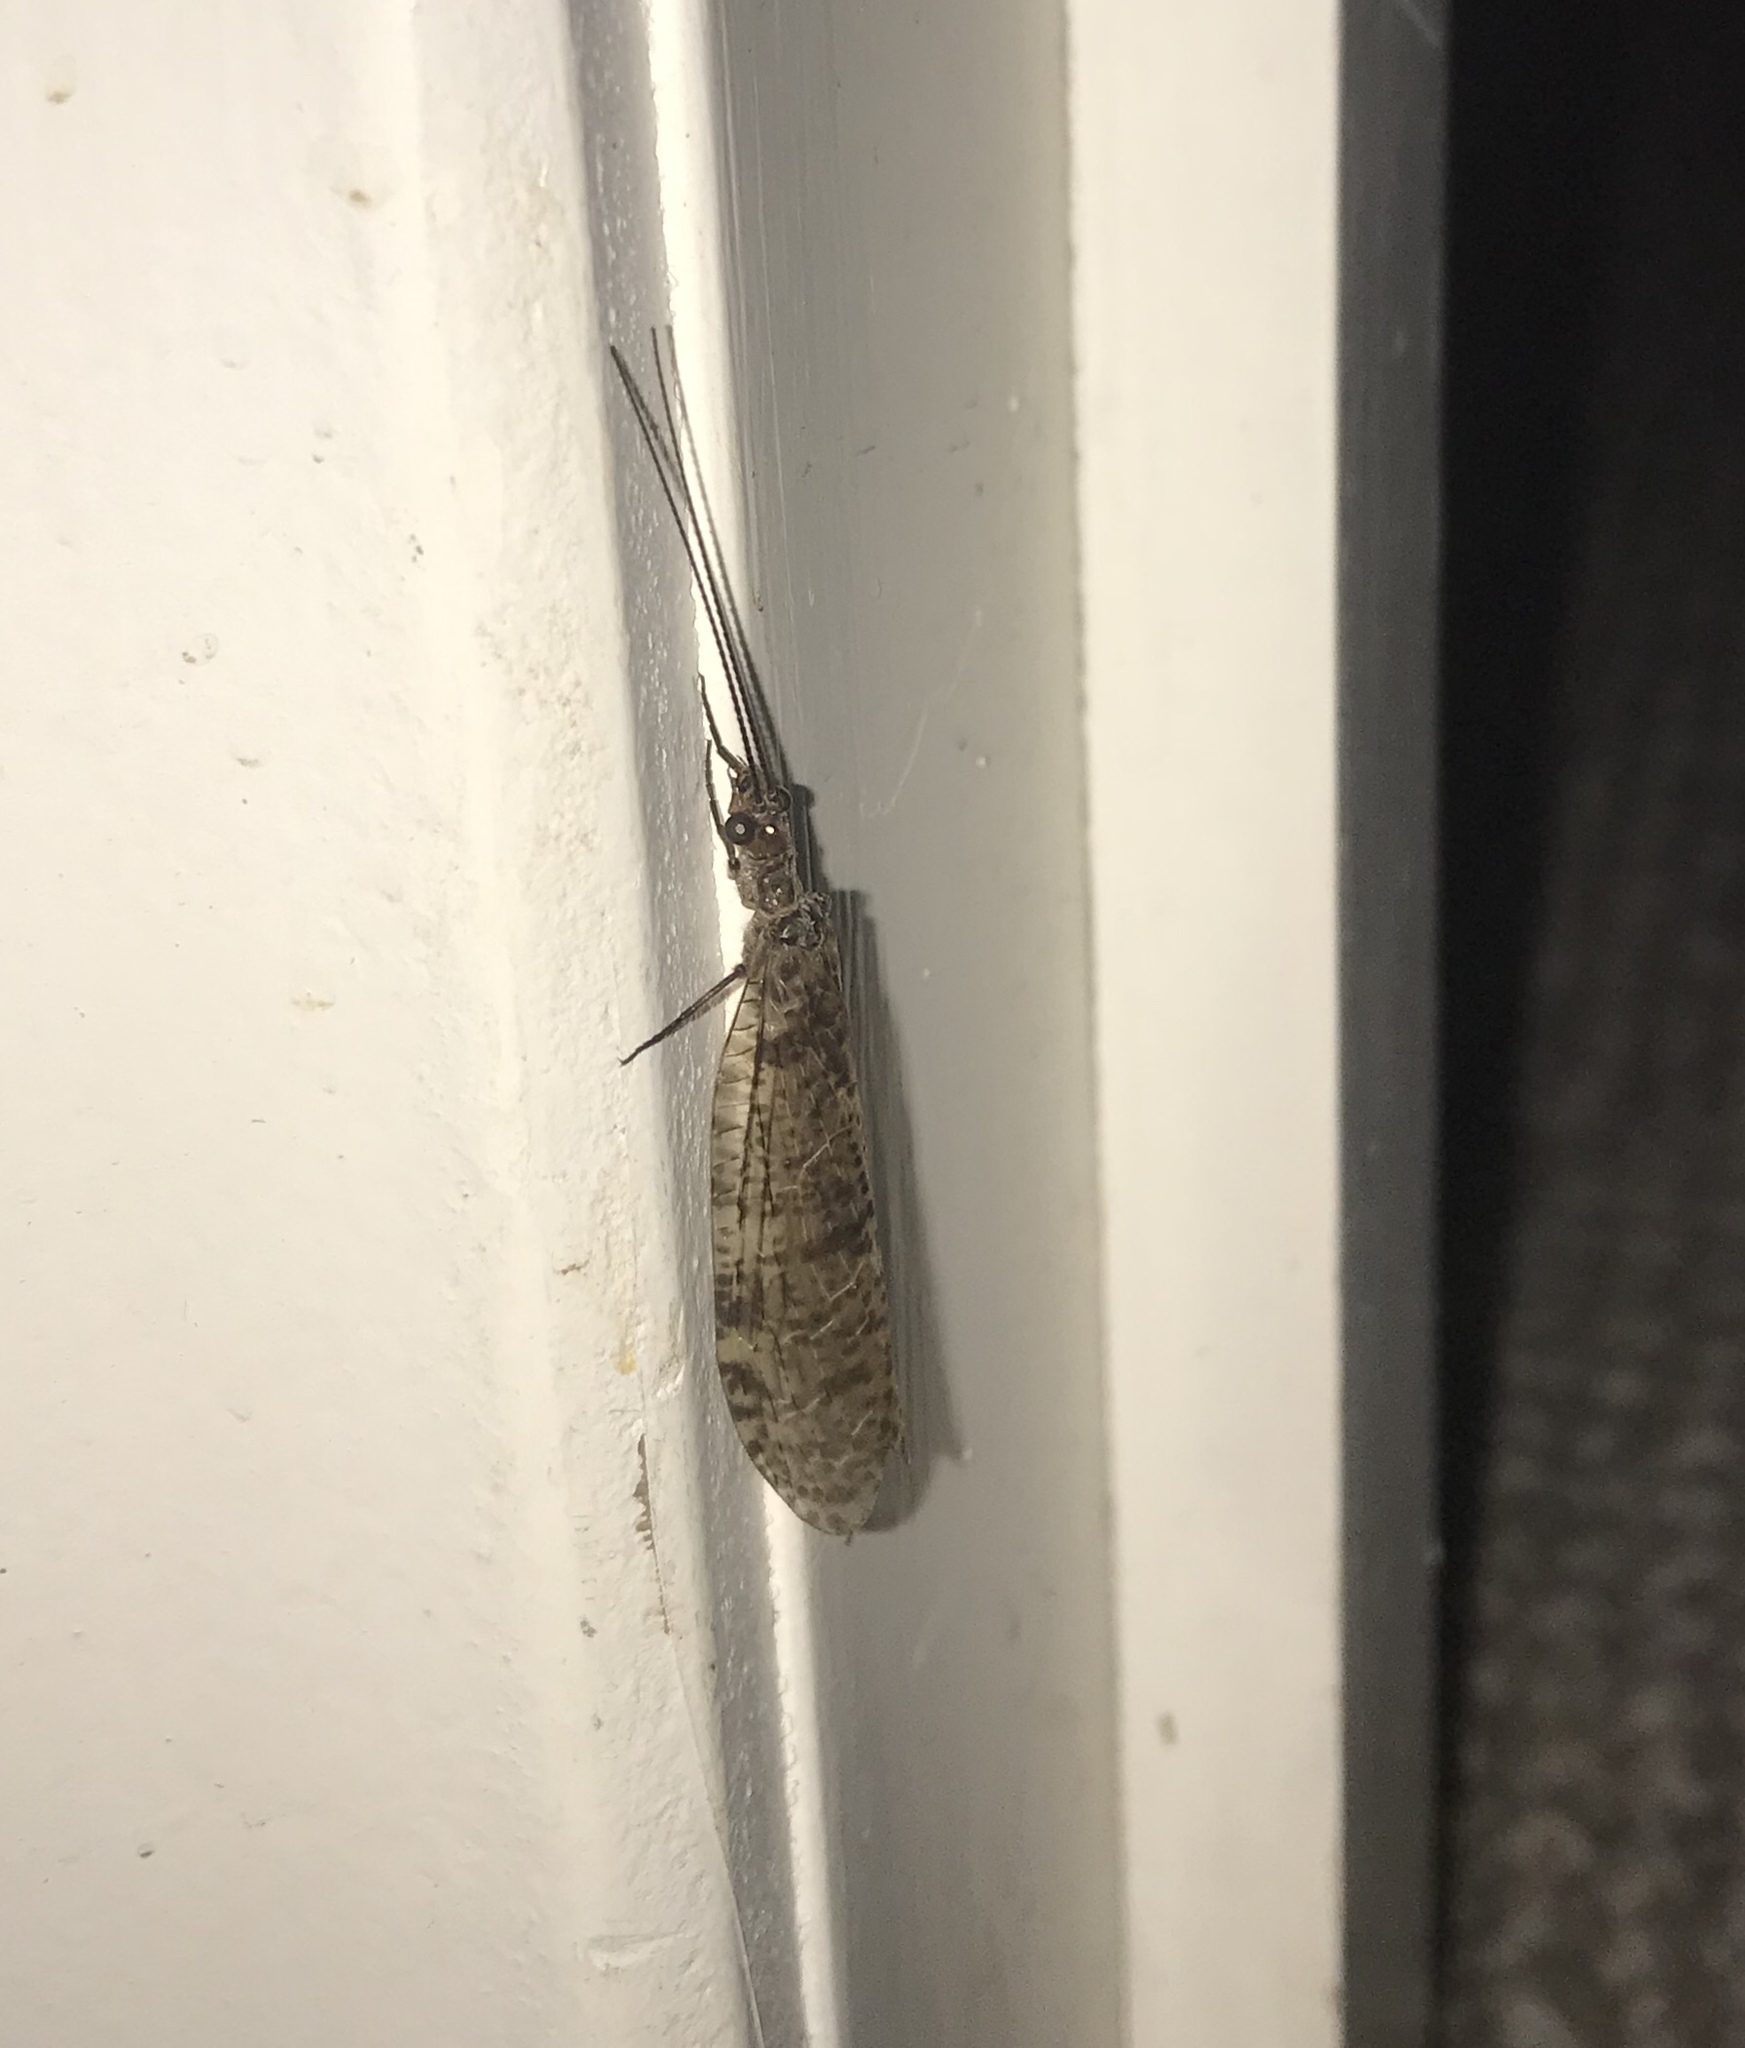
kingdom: Animalia
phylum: Arthropoda
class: Insecta
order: Megaloptera
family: Corydalidae
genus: Archichauliodes
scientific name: Archichauliodes diversus
